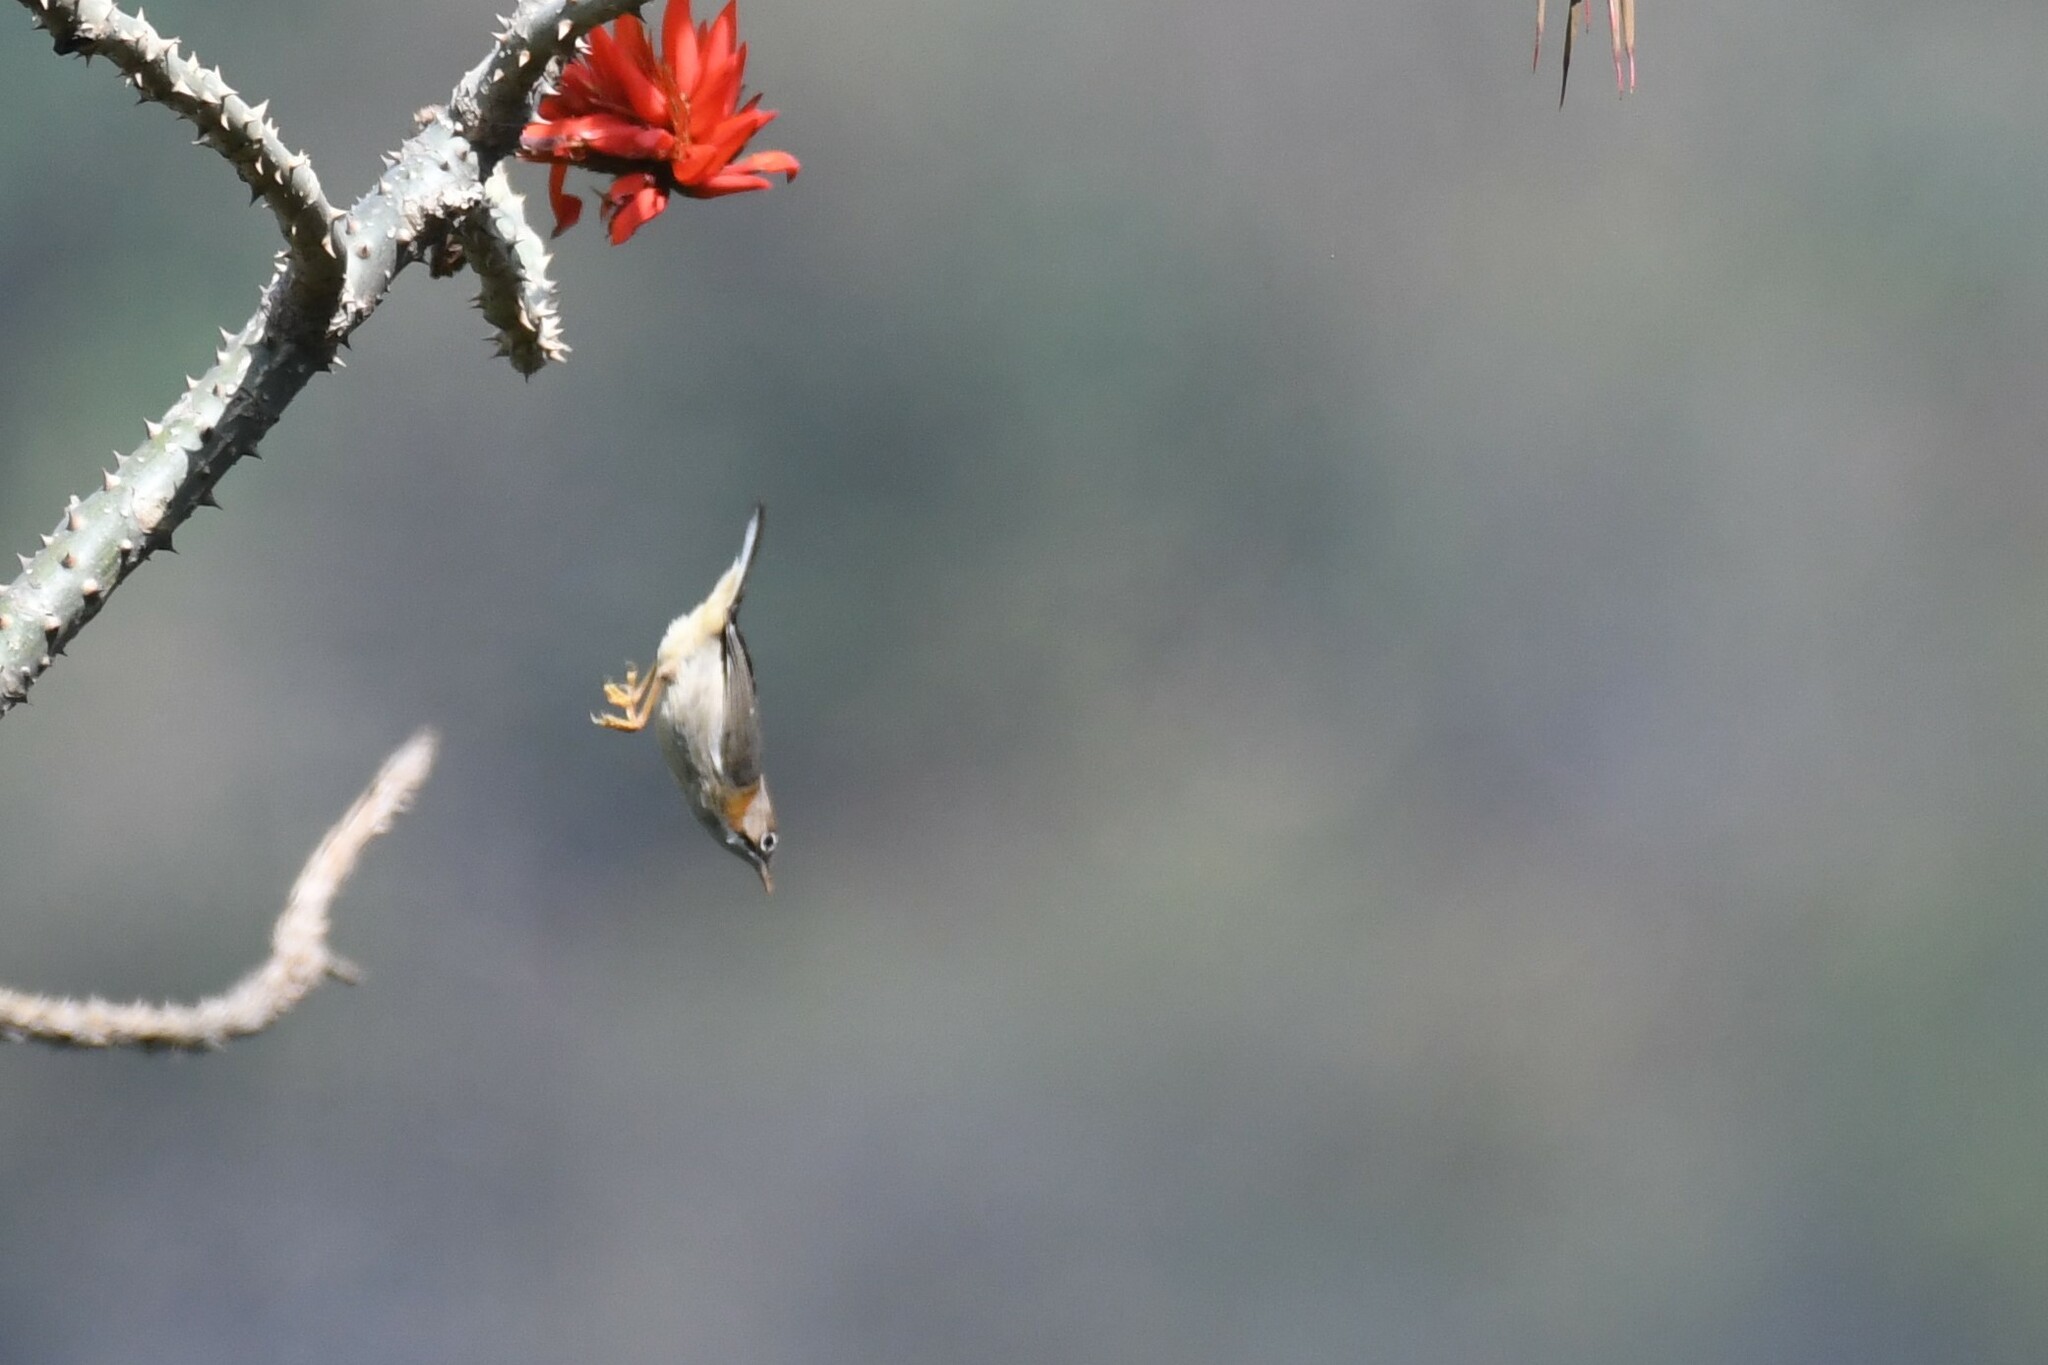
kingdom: Animalia
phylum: Chordata
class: Aves
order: Passeriformes
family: Zosteropidae
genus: Yuhina
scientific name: Yuhina flavicollis
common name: Whiskered yuhina
